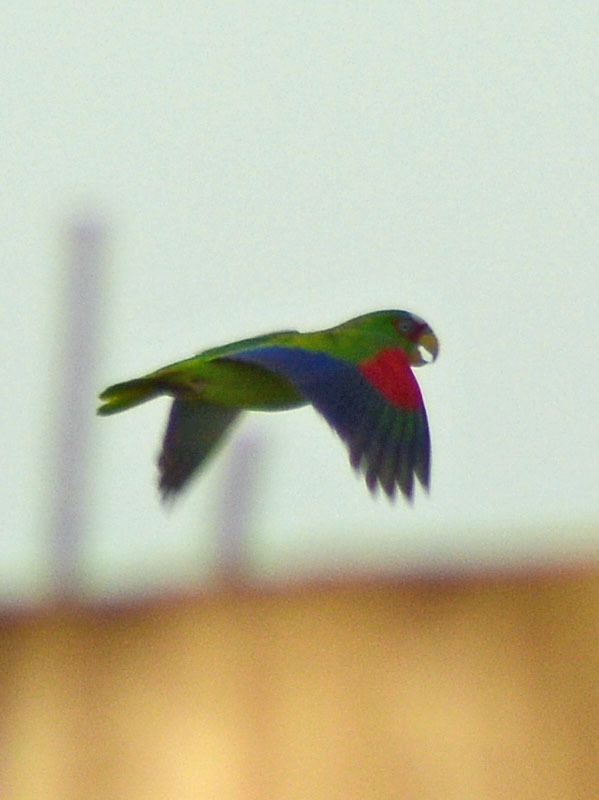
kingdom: Animalia
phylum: Chordata
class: Aves
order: Psittaciformes
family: Psittacidae
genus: Amazona
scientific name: Amazona albifrons
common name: White-fronted amazon
